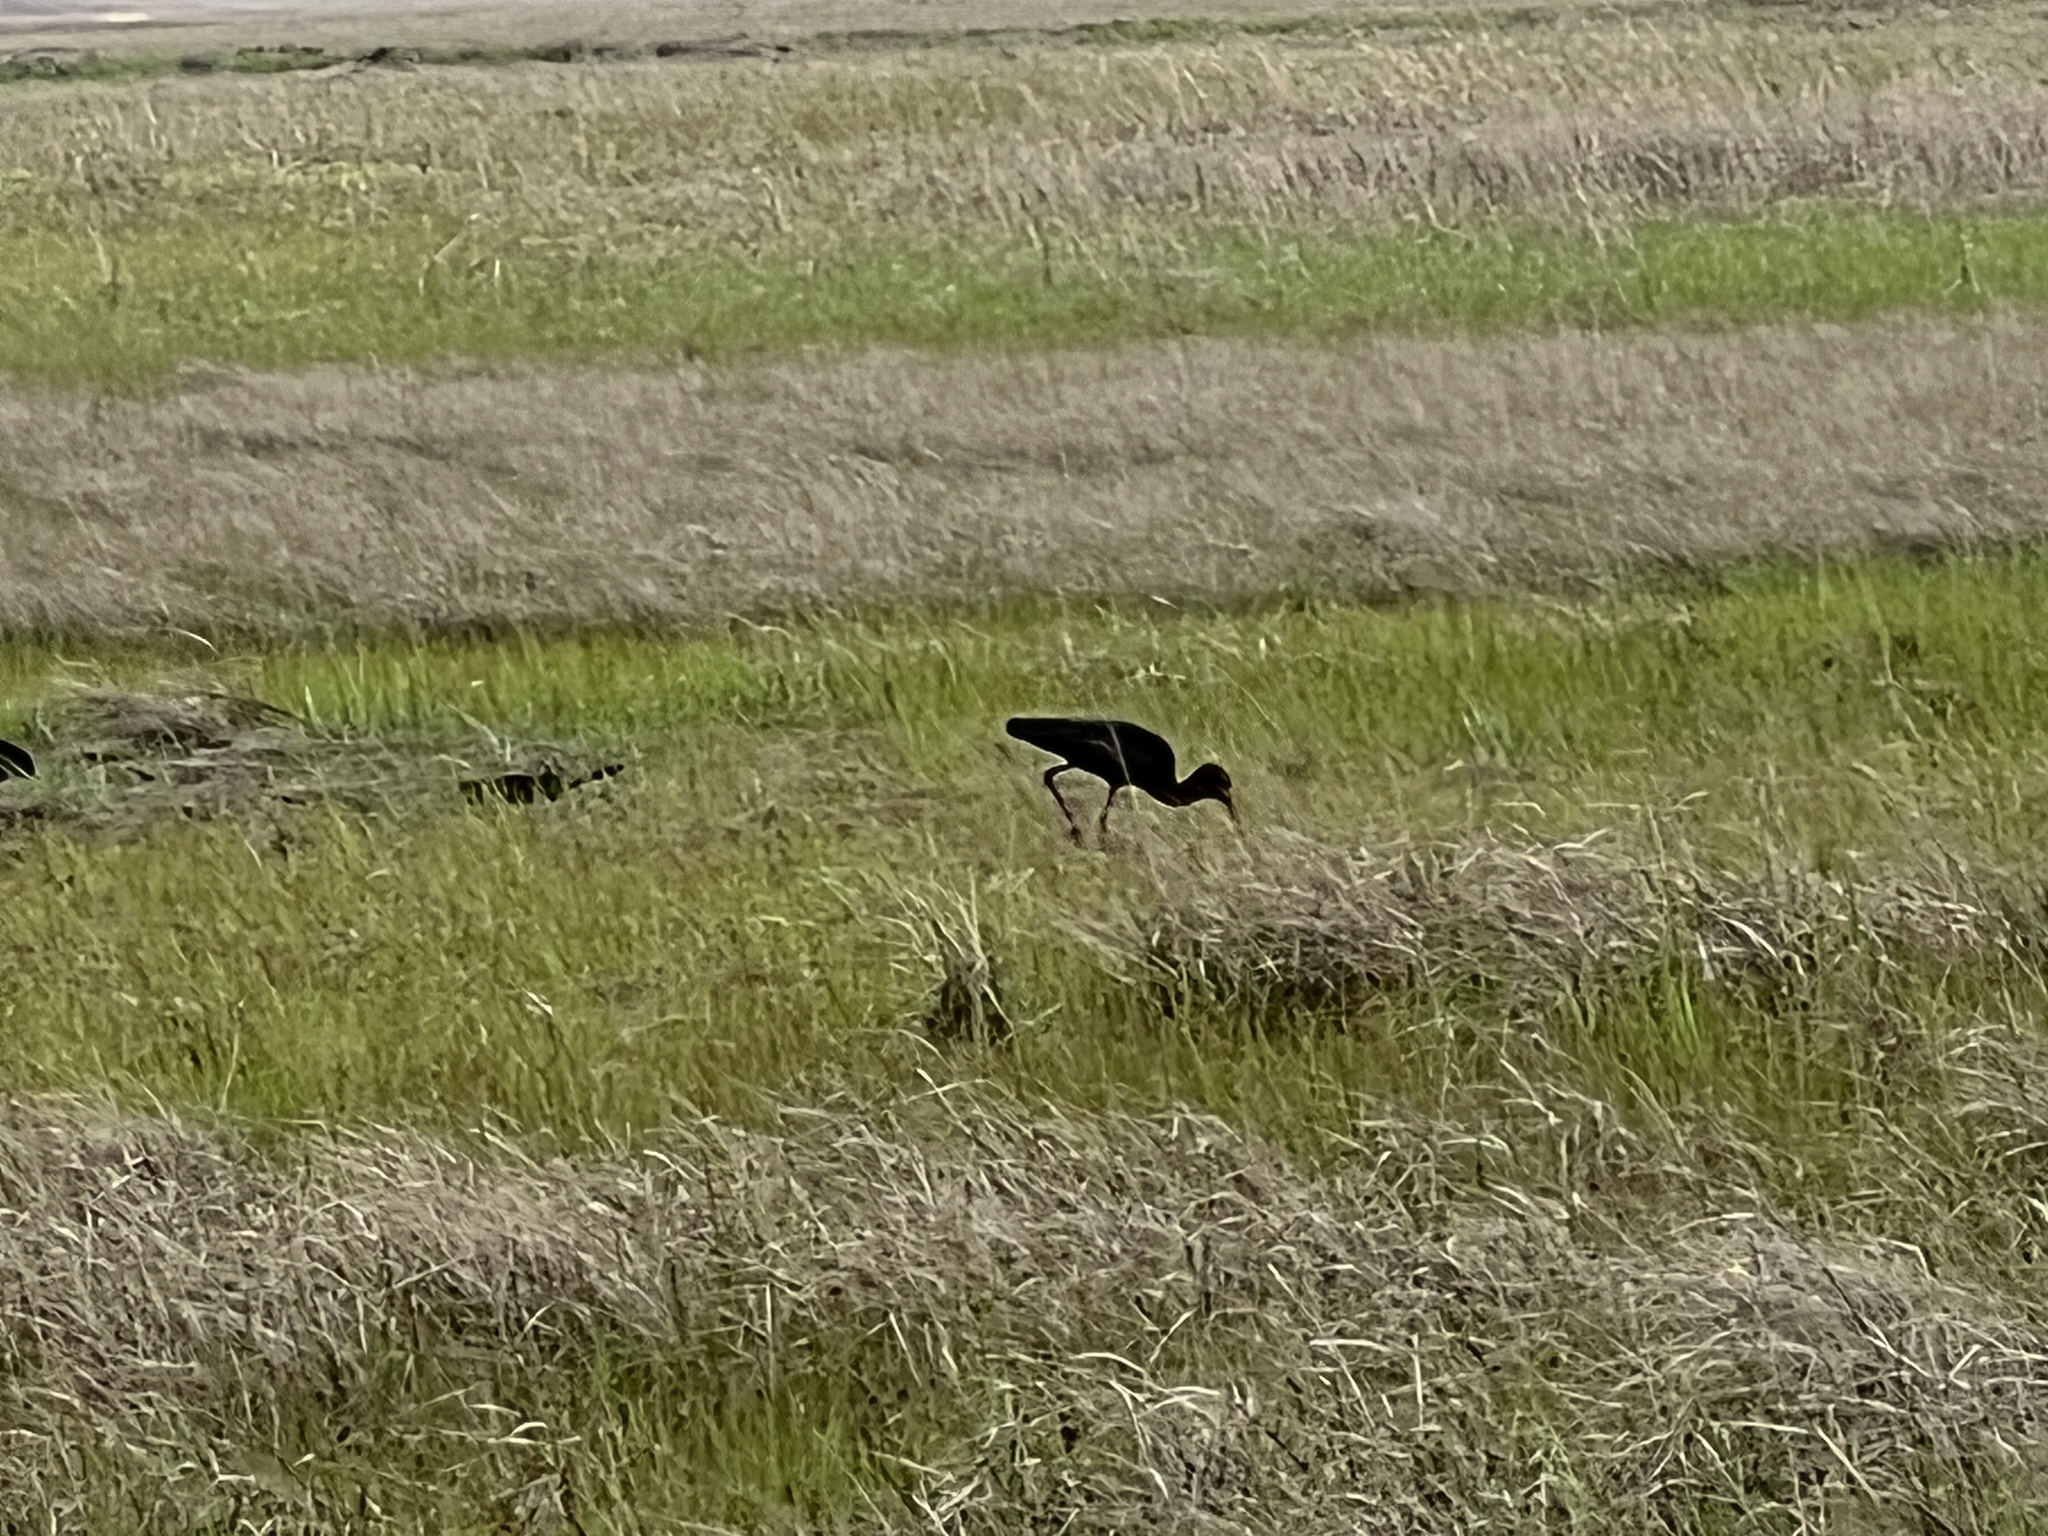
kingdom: Animalia
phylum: Chordata
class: Aves
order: Pelecaniformes
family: Threskiornithidae
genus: Plegadis
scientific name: Plegadis falcinellus
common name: Glossy ibis
